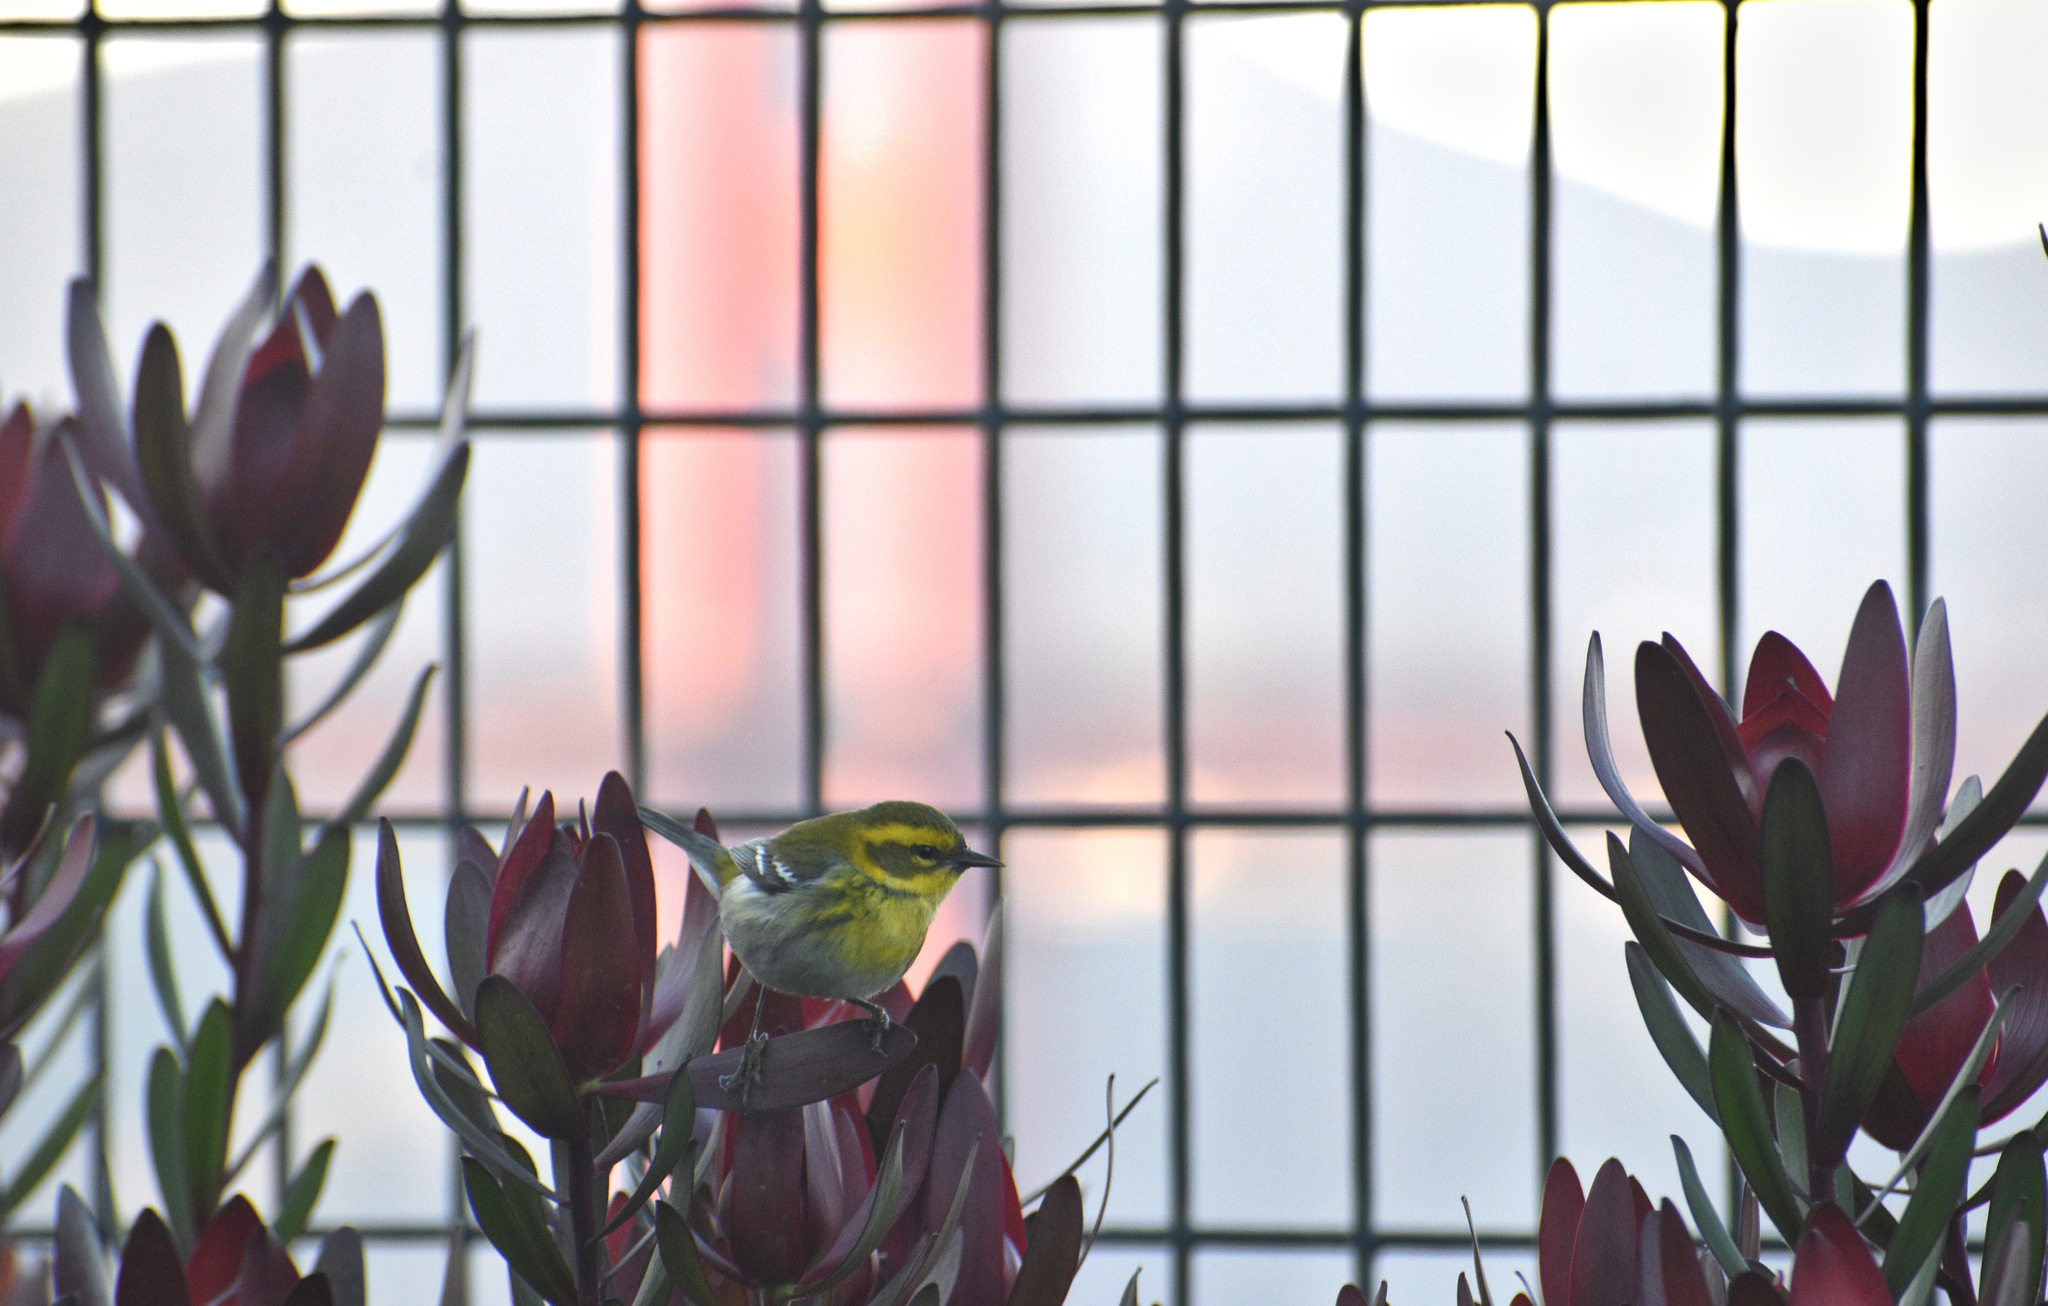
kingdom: Animalia
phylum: Chordata
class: Aves
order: Passeriformes
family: Parulidae
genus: Setophaga
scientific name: Setophaga townsendi
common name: Townsend's warbler
